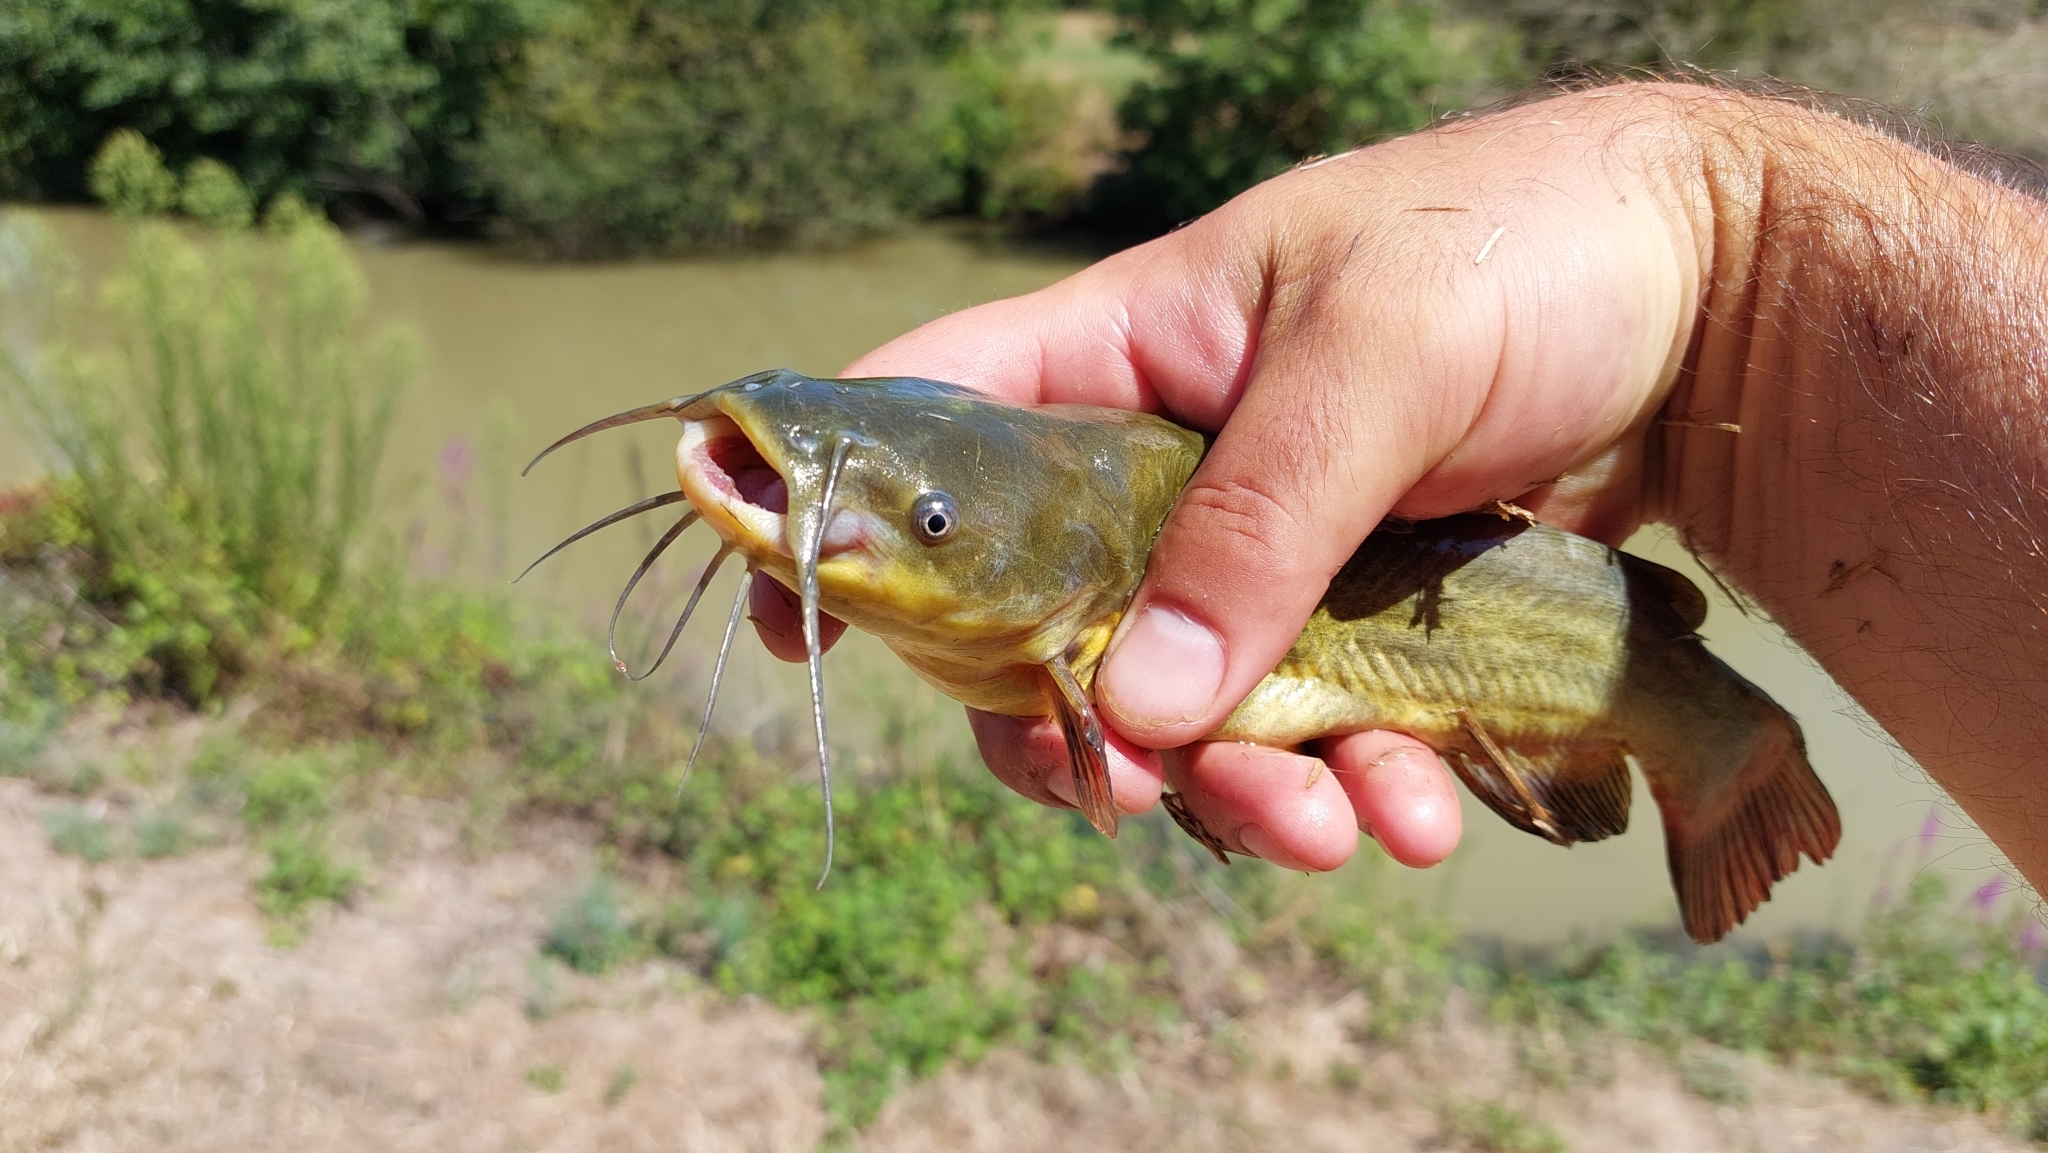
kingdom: Animalia
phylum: Chordata
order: Siluriformes
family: Ictaluridae
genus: Ameiurus
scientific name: Ameiurus melas
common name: Black bullhead
